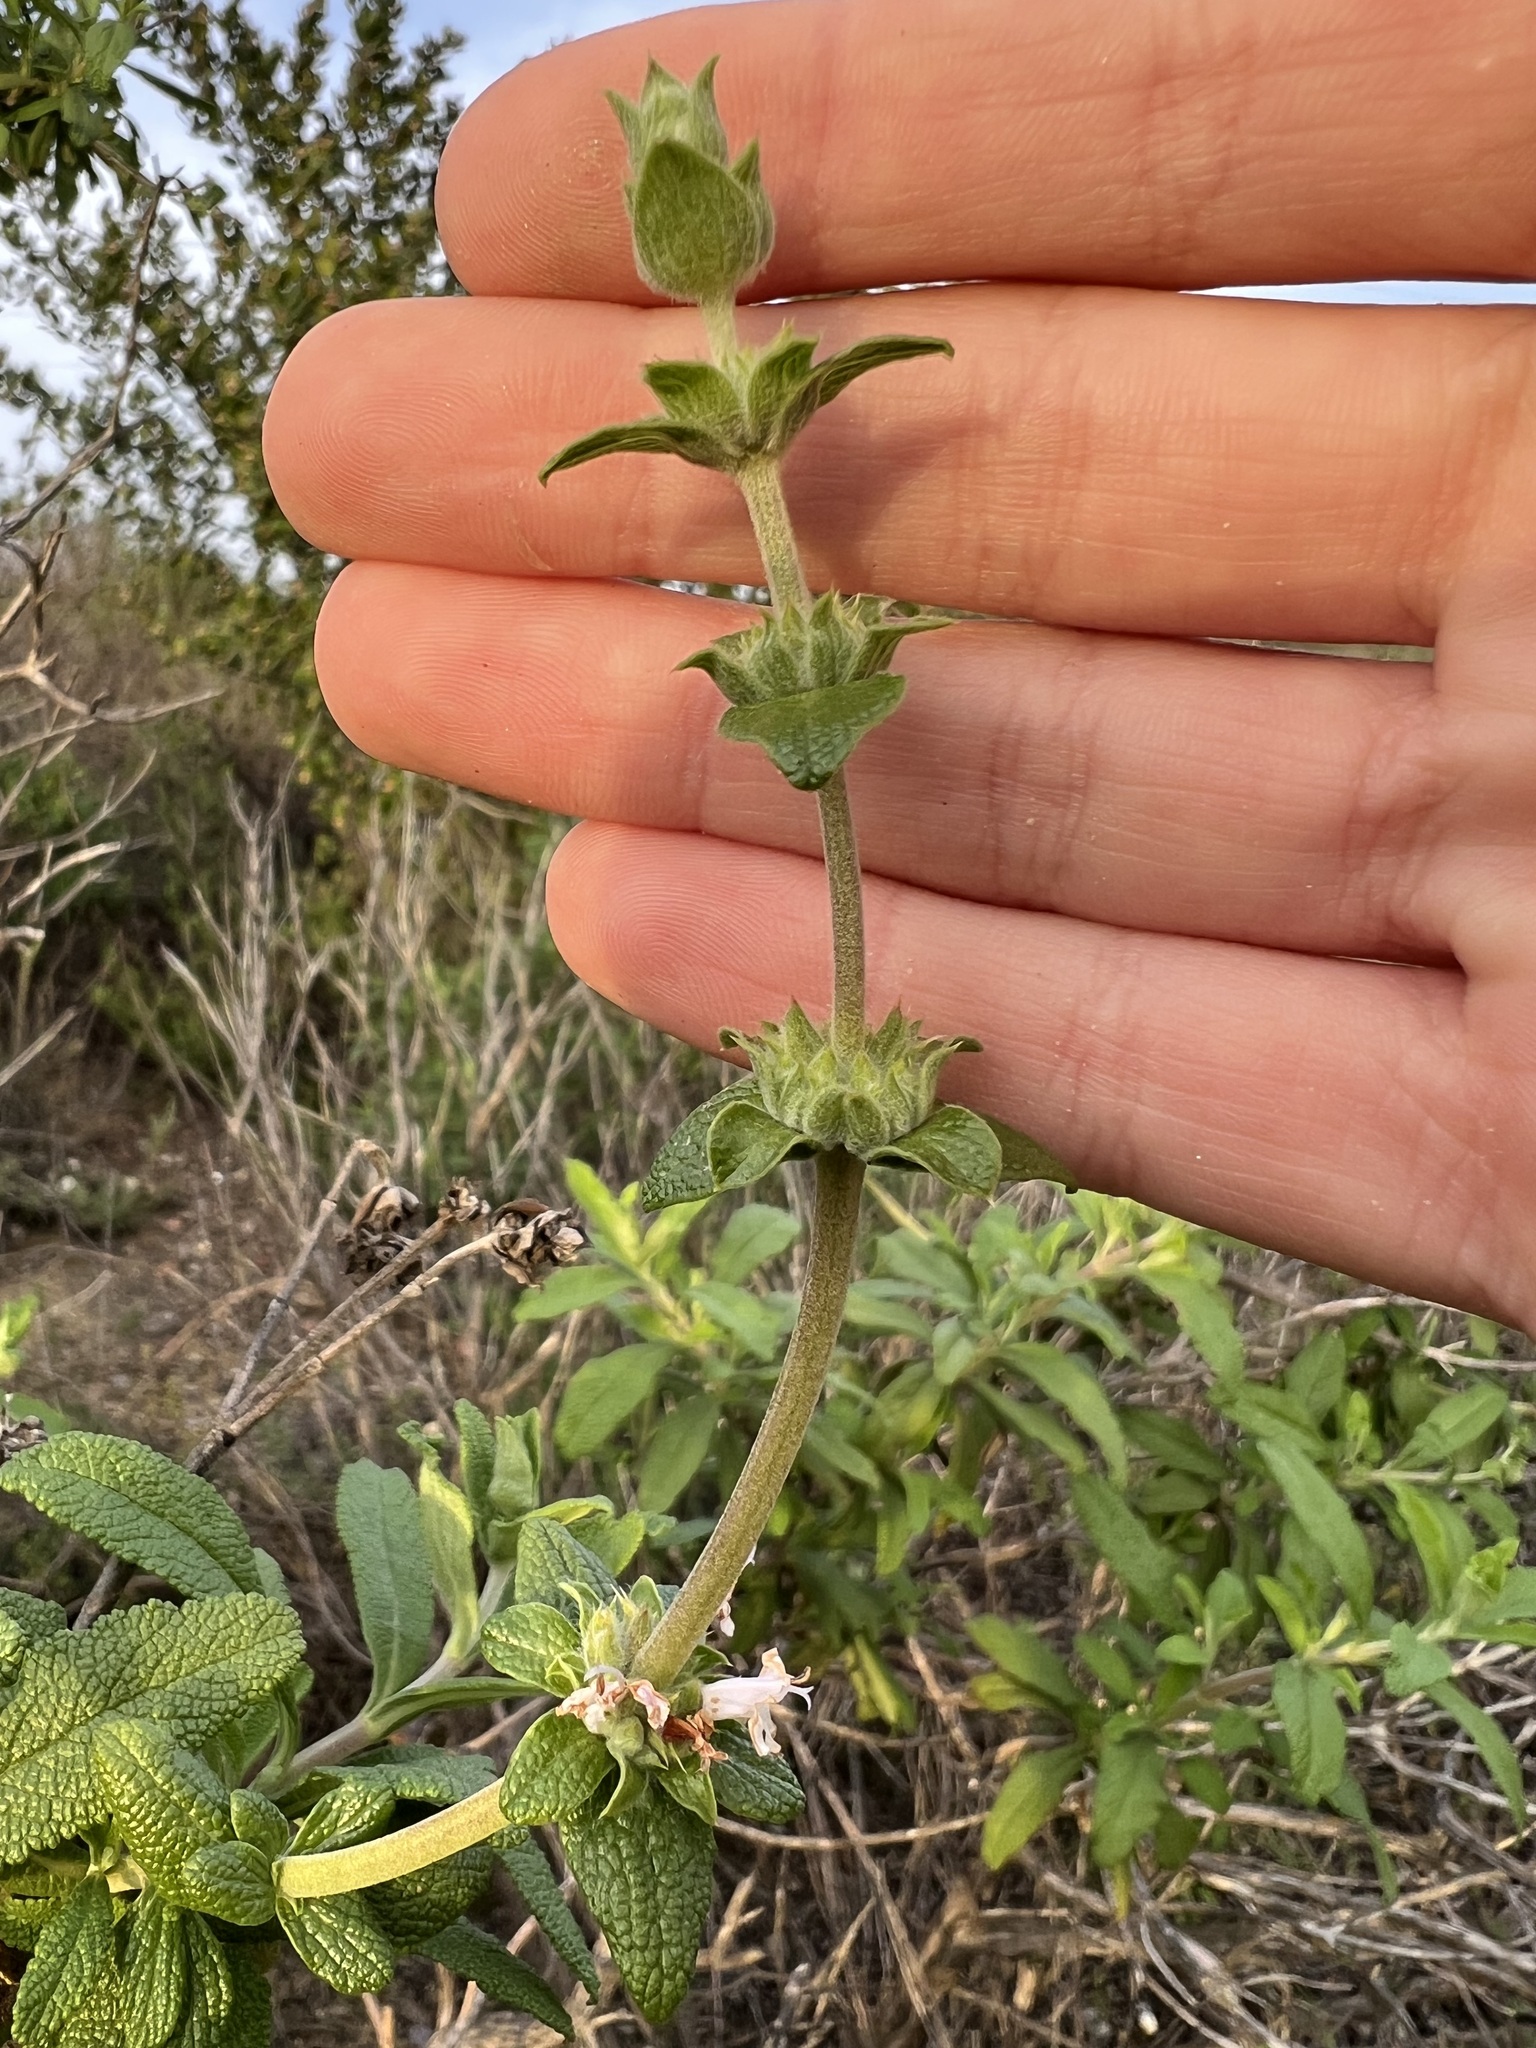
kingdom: Plantae
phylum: Tracheophyta
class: Magnoliopsida
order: Lamiales
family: Lamiaceae
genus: Salvia
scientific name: Salvia mellifera
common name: Black sage
